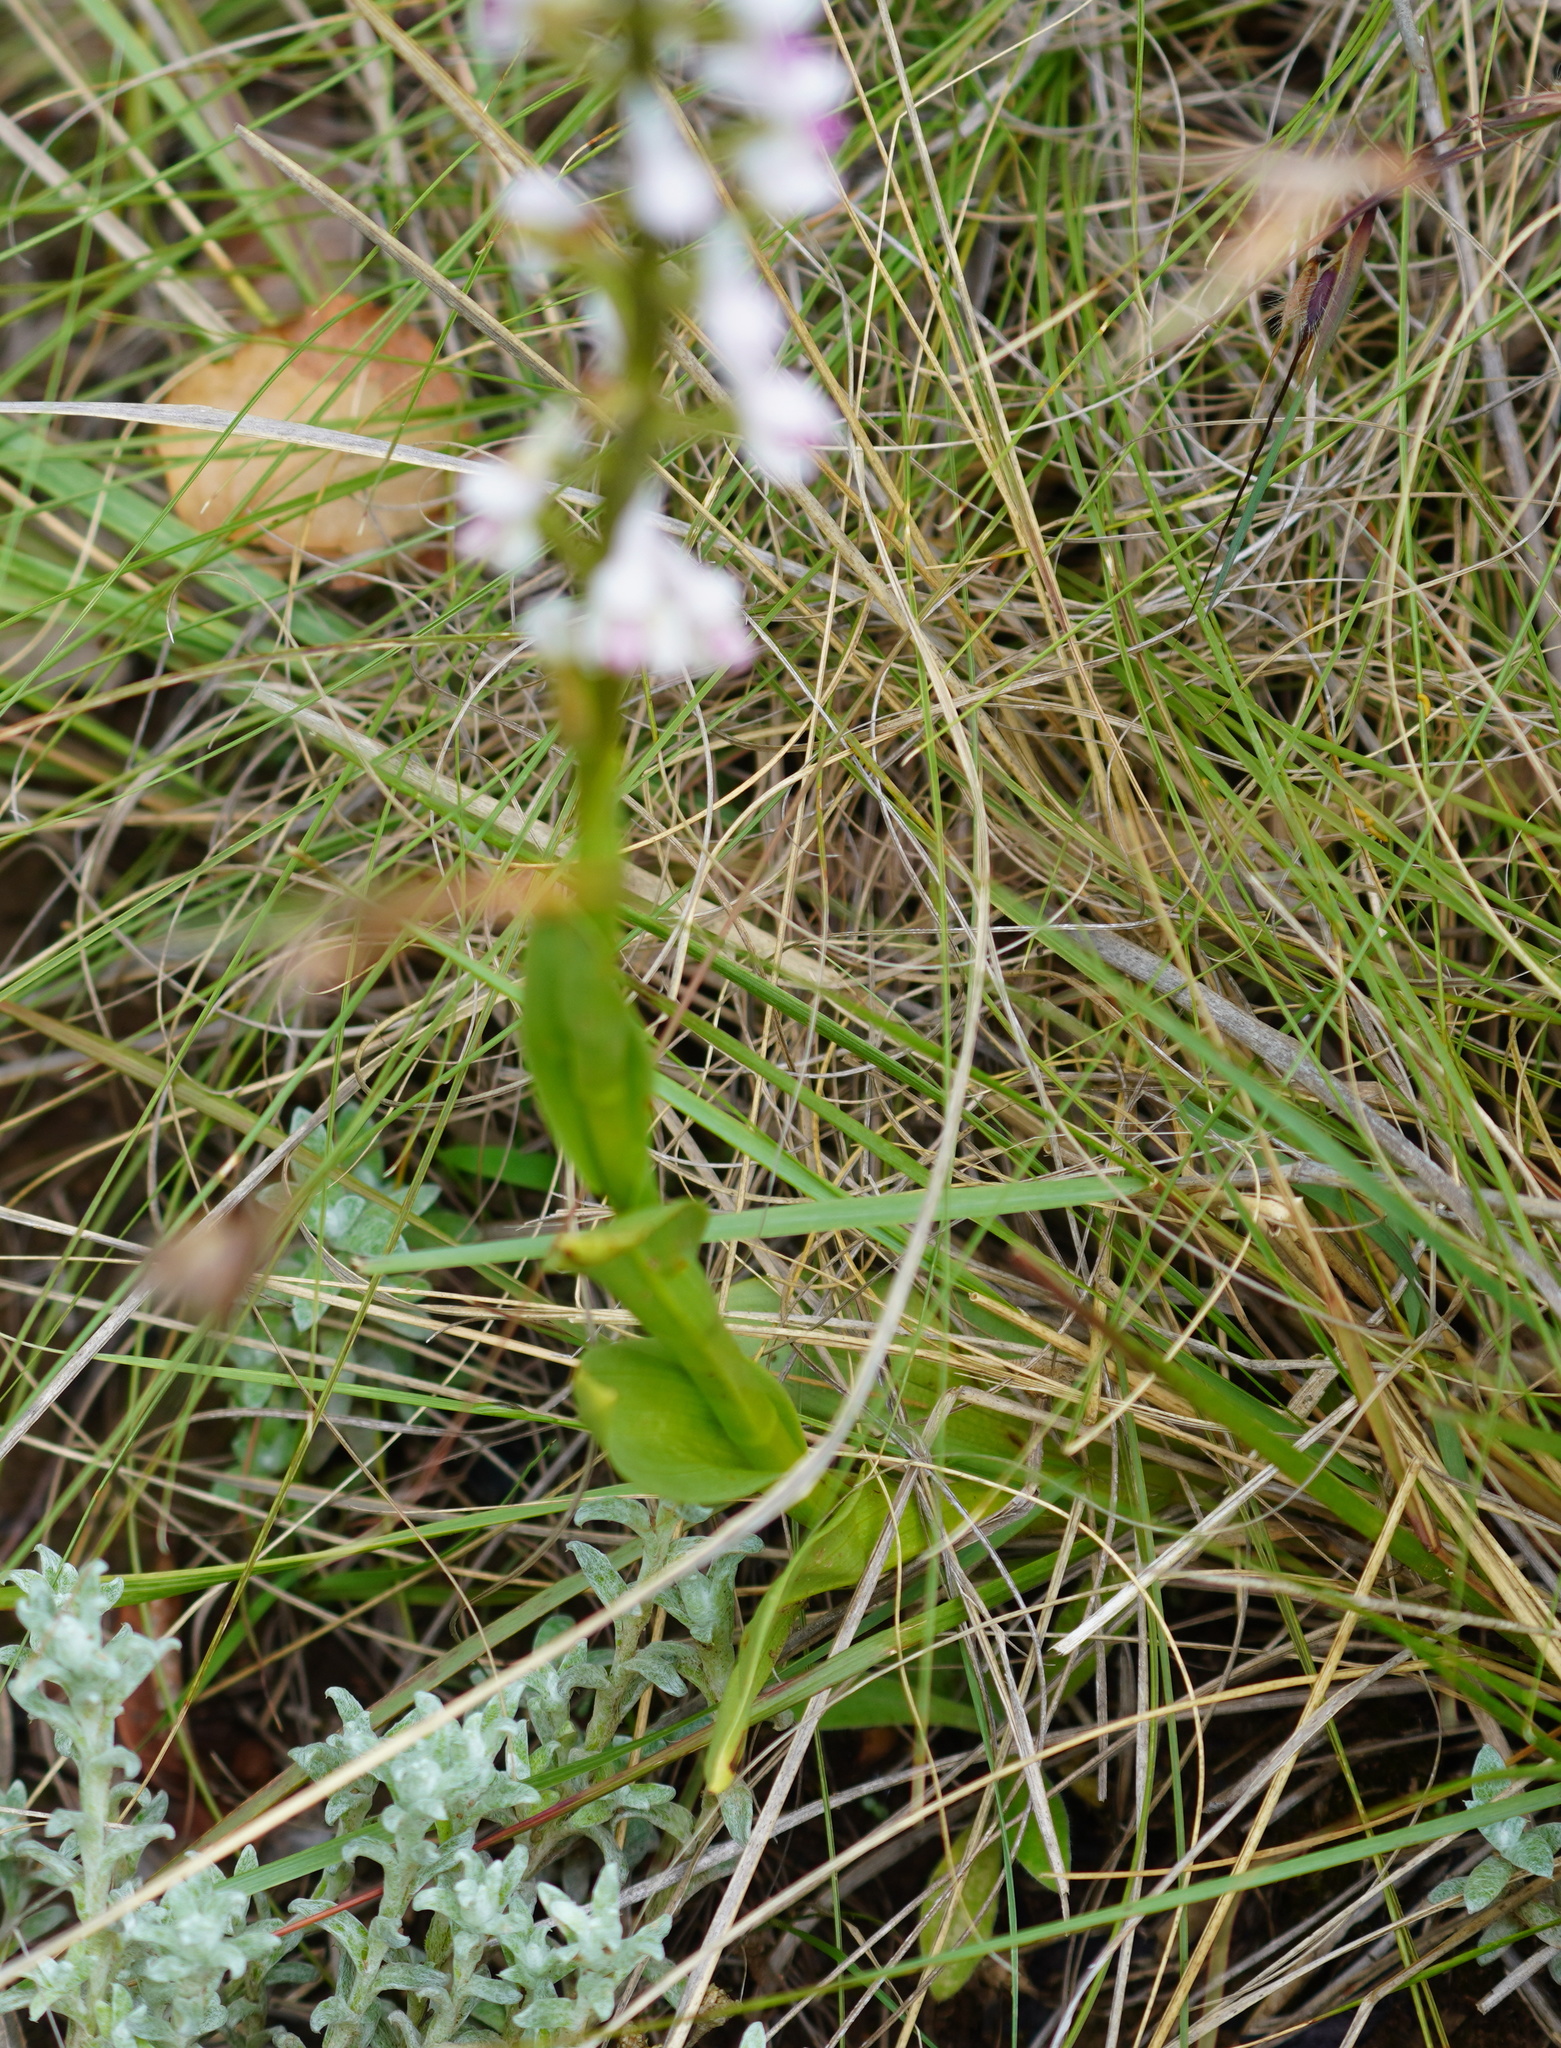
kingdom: Plantae
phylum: Tracheophyta
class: Liliopsida
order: Asparagales
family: Orchidaceae
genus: Disa
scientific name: Disa aconitoides
